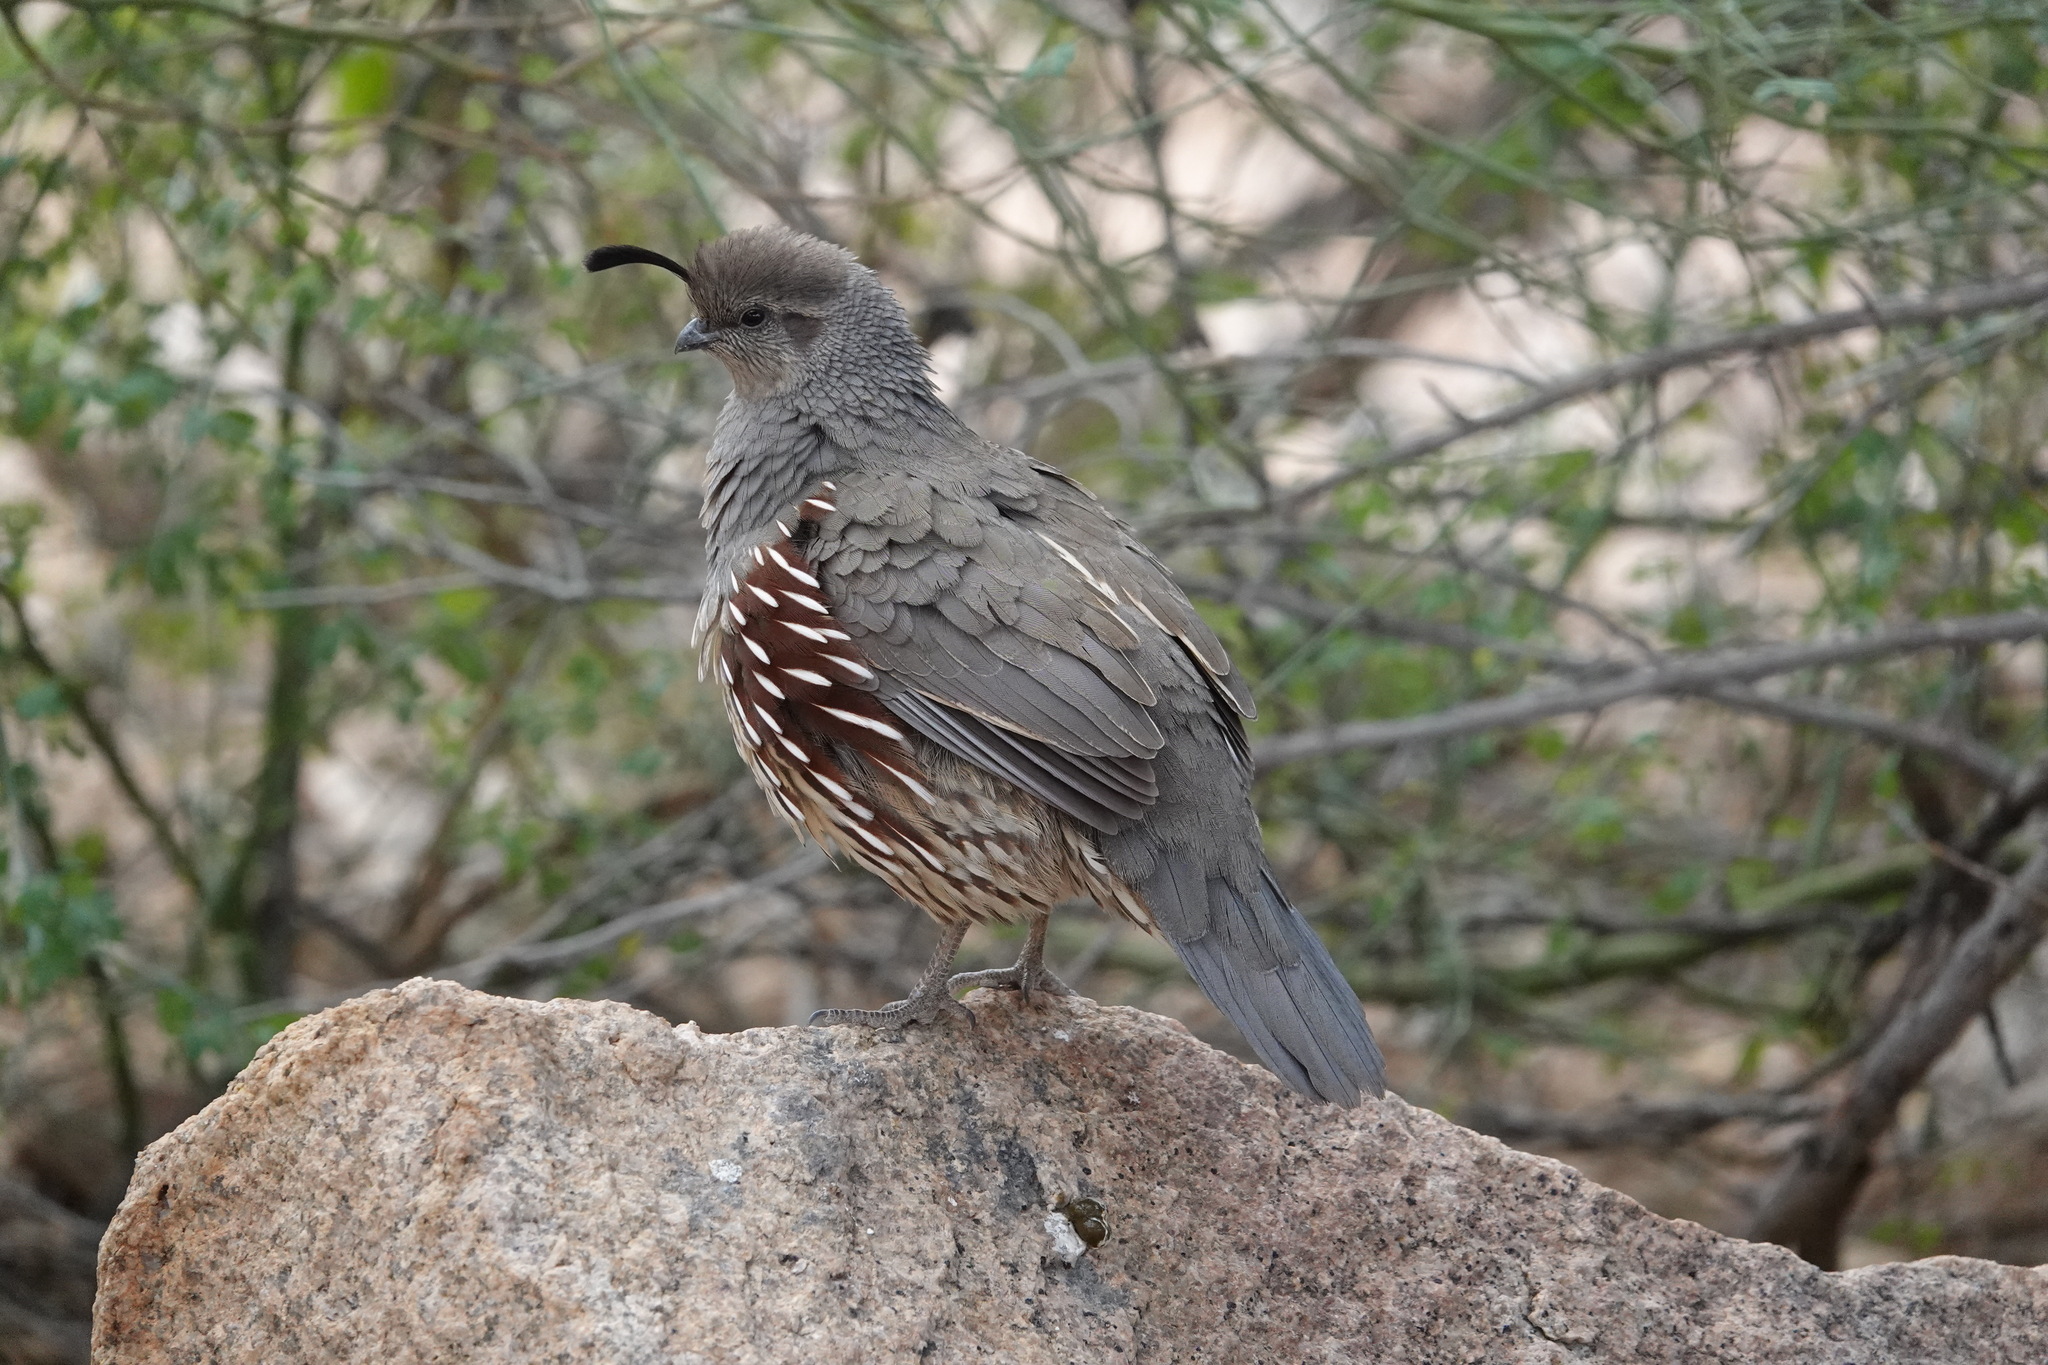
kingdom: Animalia
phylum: Chordata
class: Aves
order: Galliformes
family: Odontophoridae
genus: Callipepla
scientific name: Callipepla gambelii
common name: Gambel's quail
